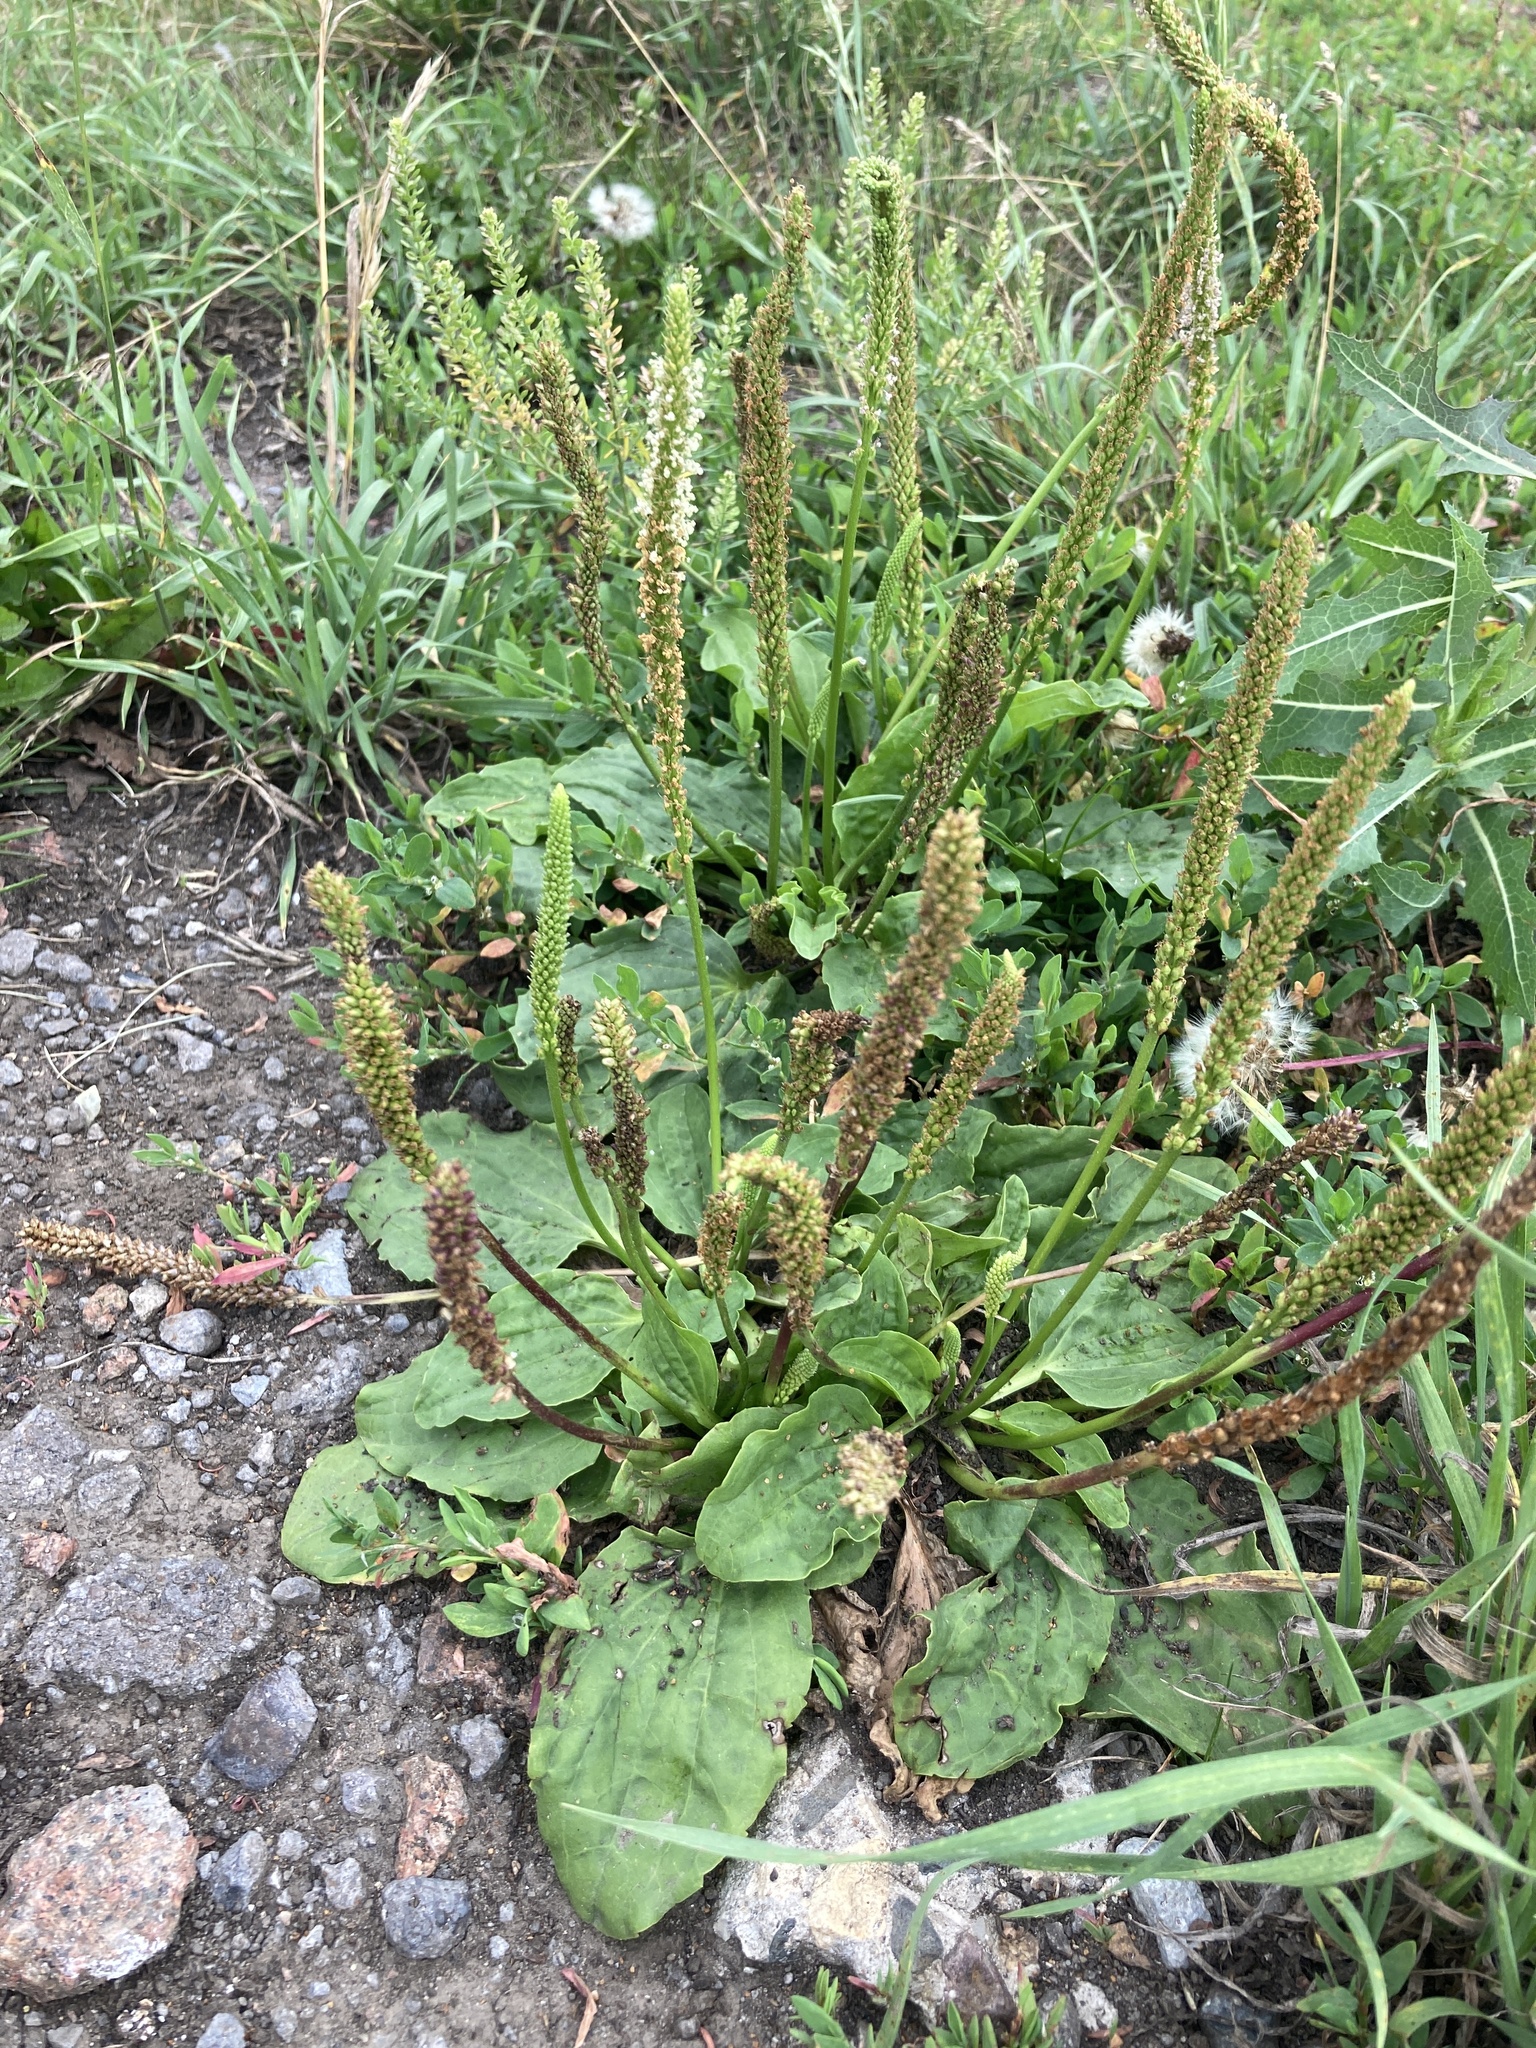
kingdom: Plantae
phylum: Tracheophyta
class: Magnoliopsida
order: Lamiales
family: Plantaginaceae
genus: Plantago
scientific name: Plantago major
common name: Common plantain
